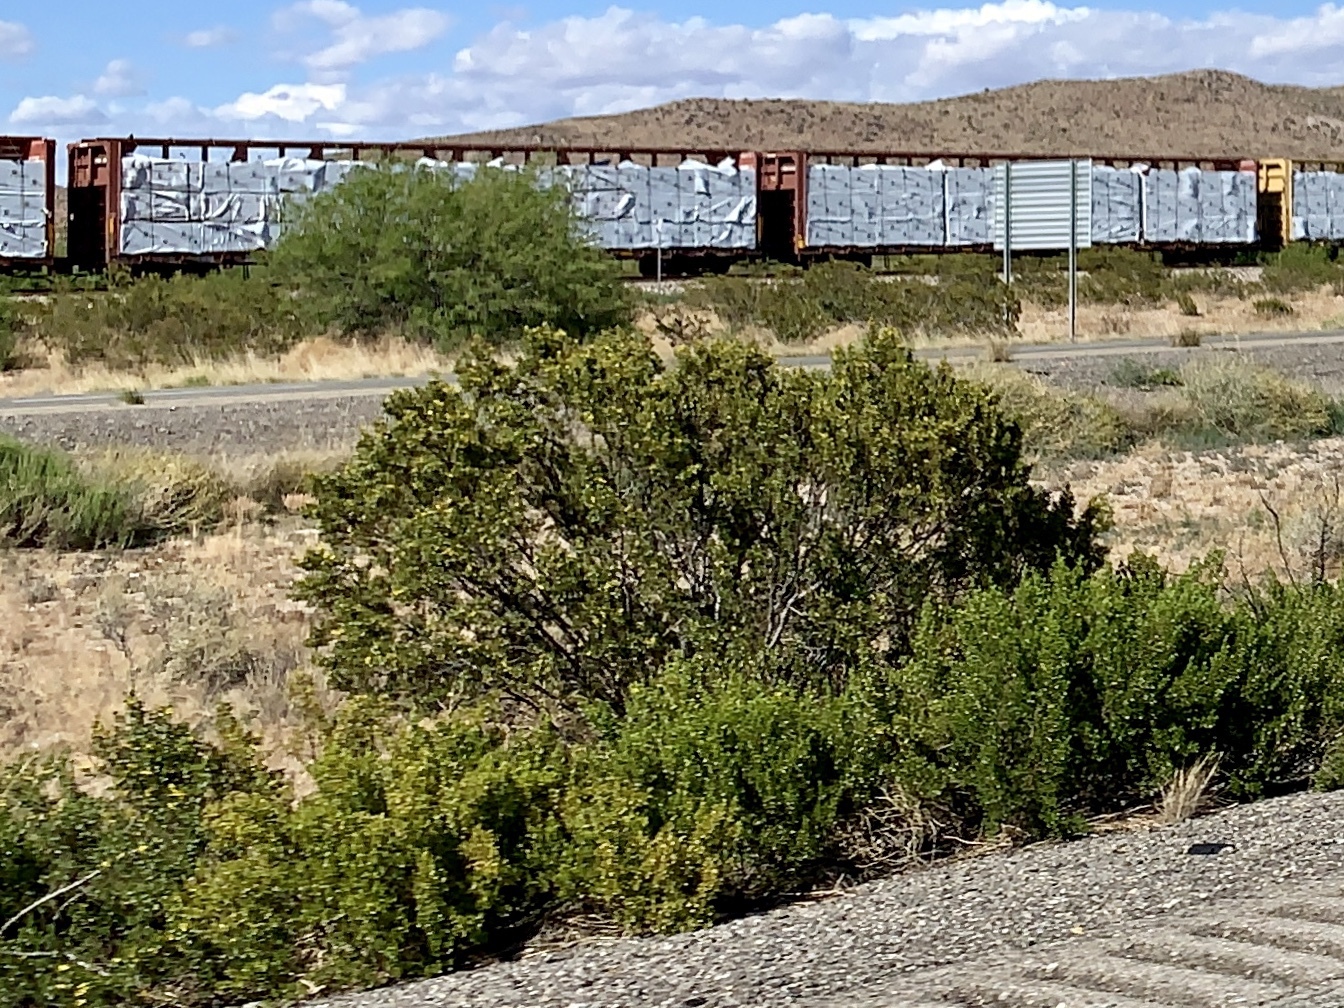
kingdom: Plantae
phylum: Tracheophyta
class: Magnoliopsida
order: Zygophyllales
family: Zygophyllaceae
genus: Larrea
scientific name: Larrea tridentata
